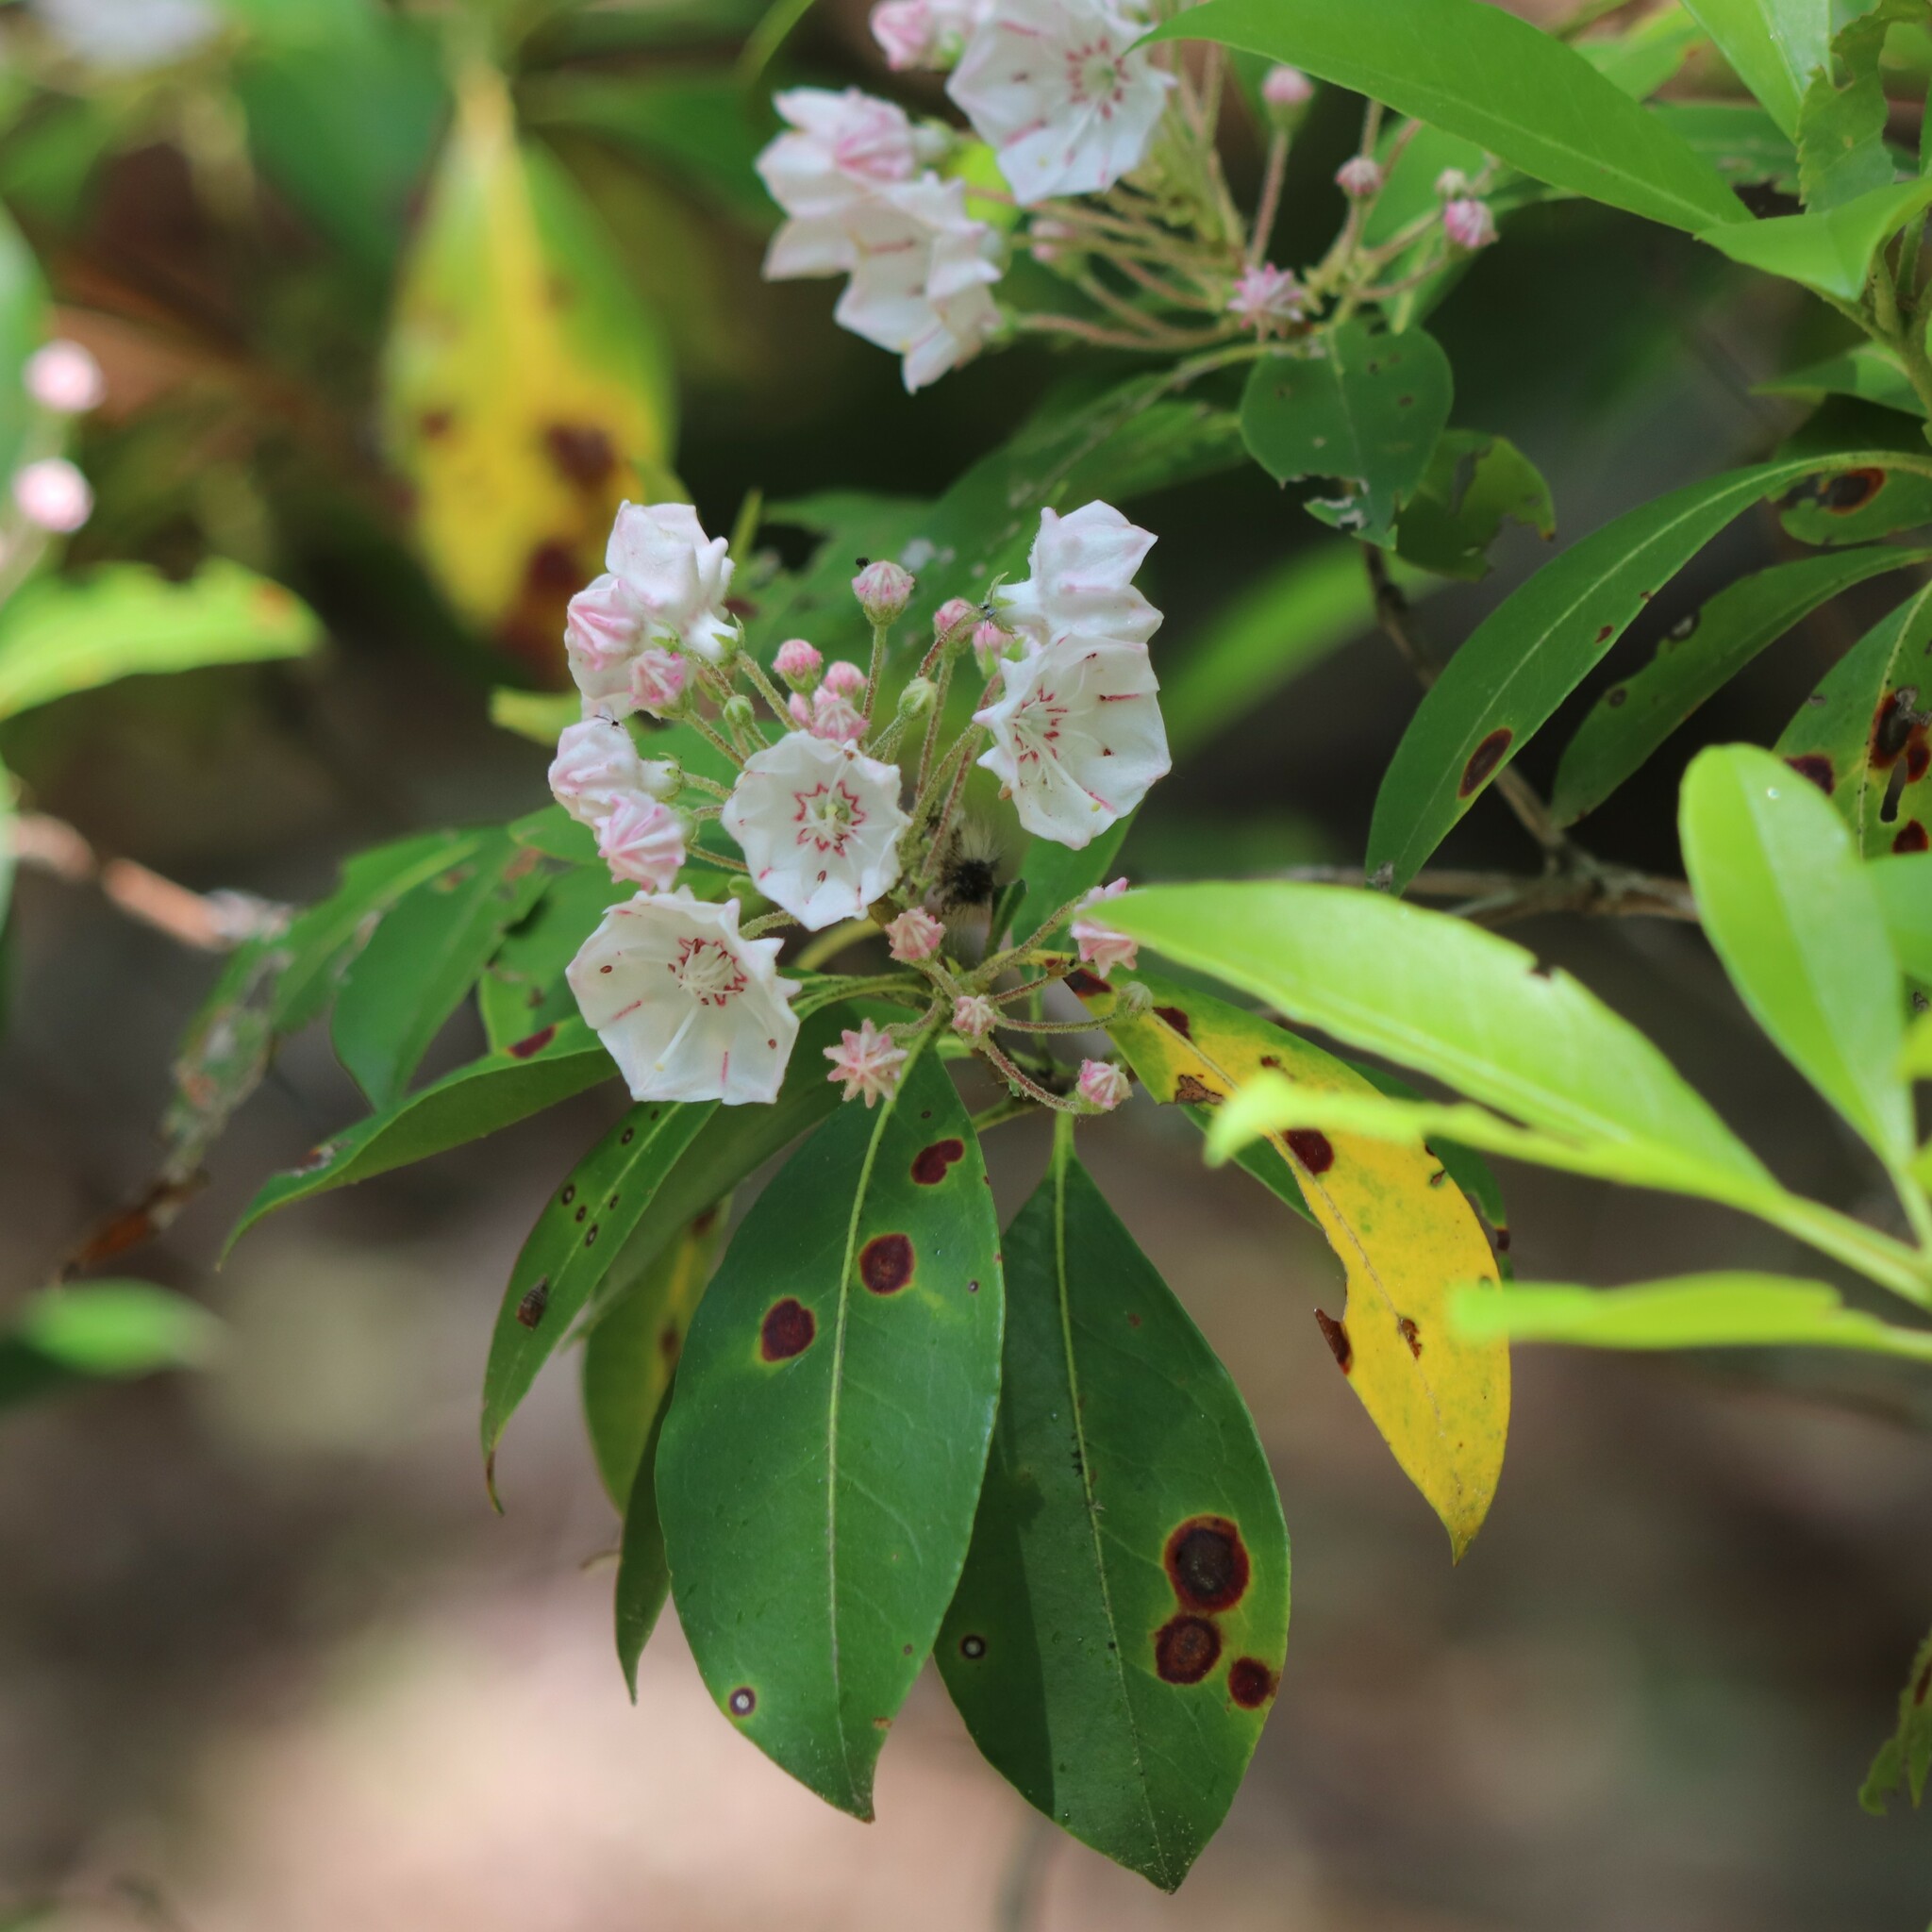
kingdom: Plantae
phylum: Tracheophyta
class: Magnoliopsida
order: Ericales
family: Ericaceae
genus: Kalmia
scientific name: Kalmia latifolia
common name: Mountain-laurel
